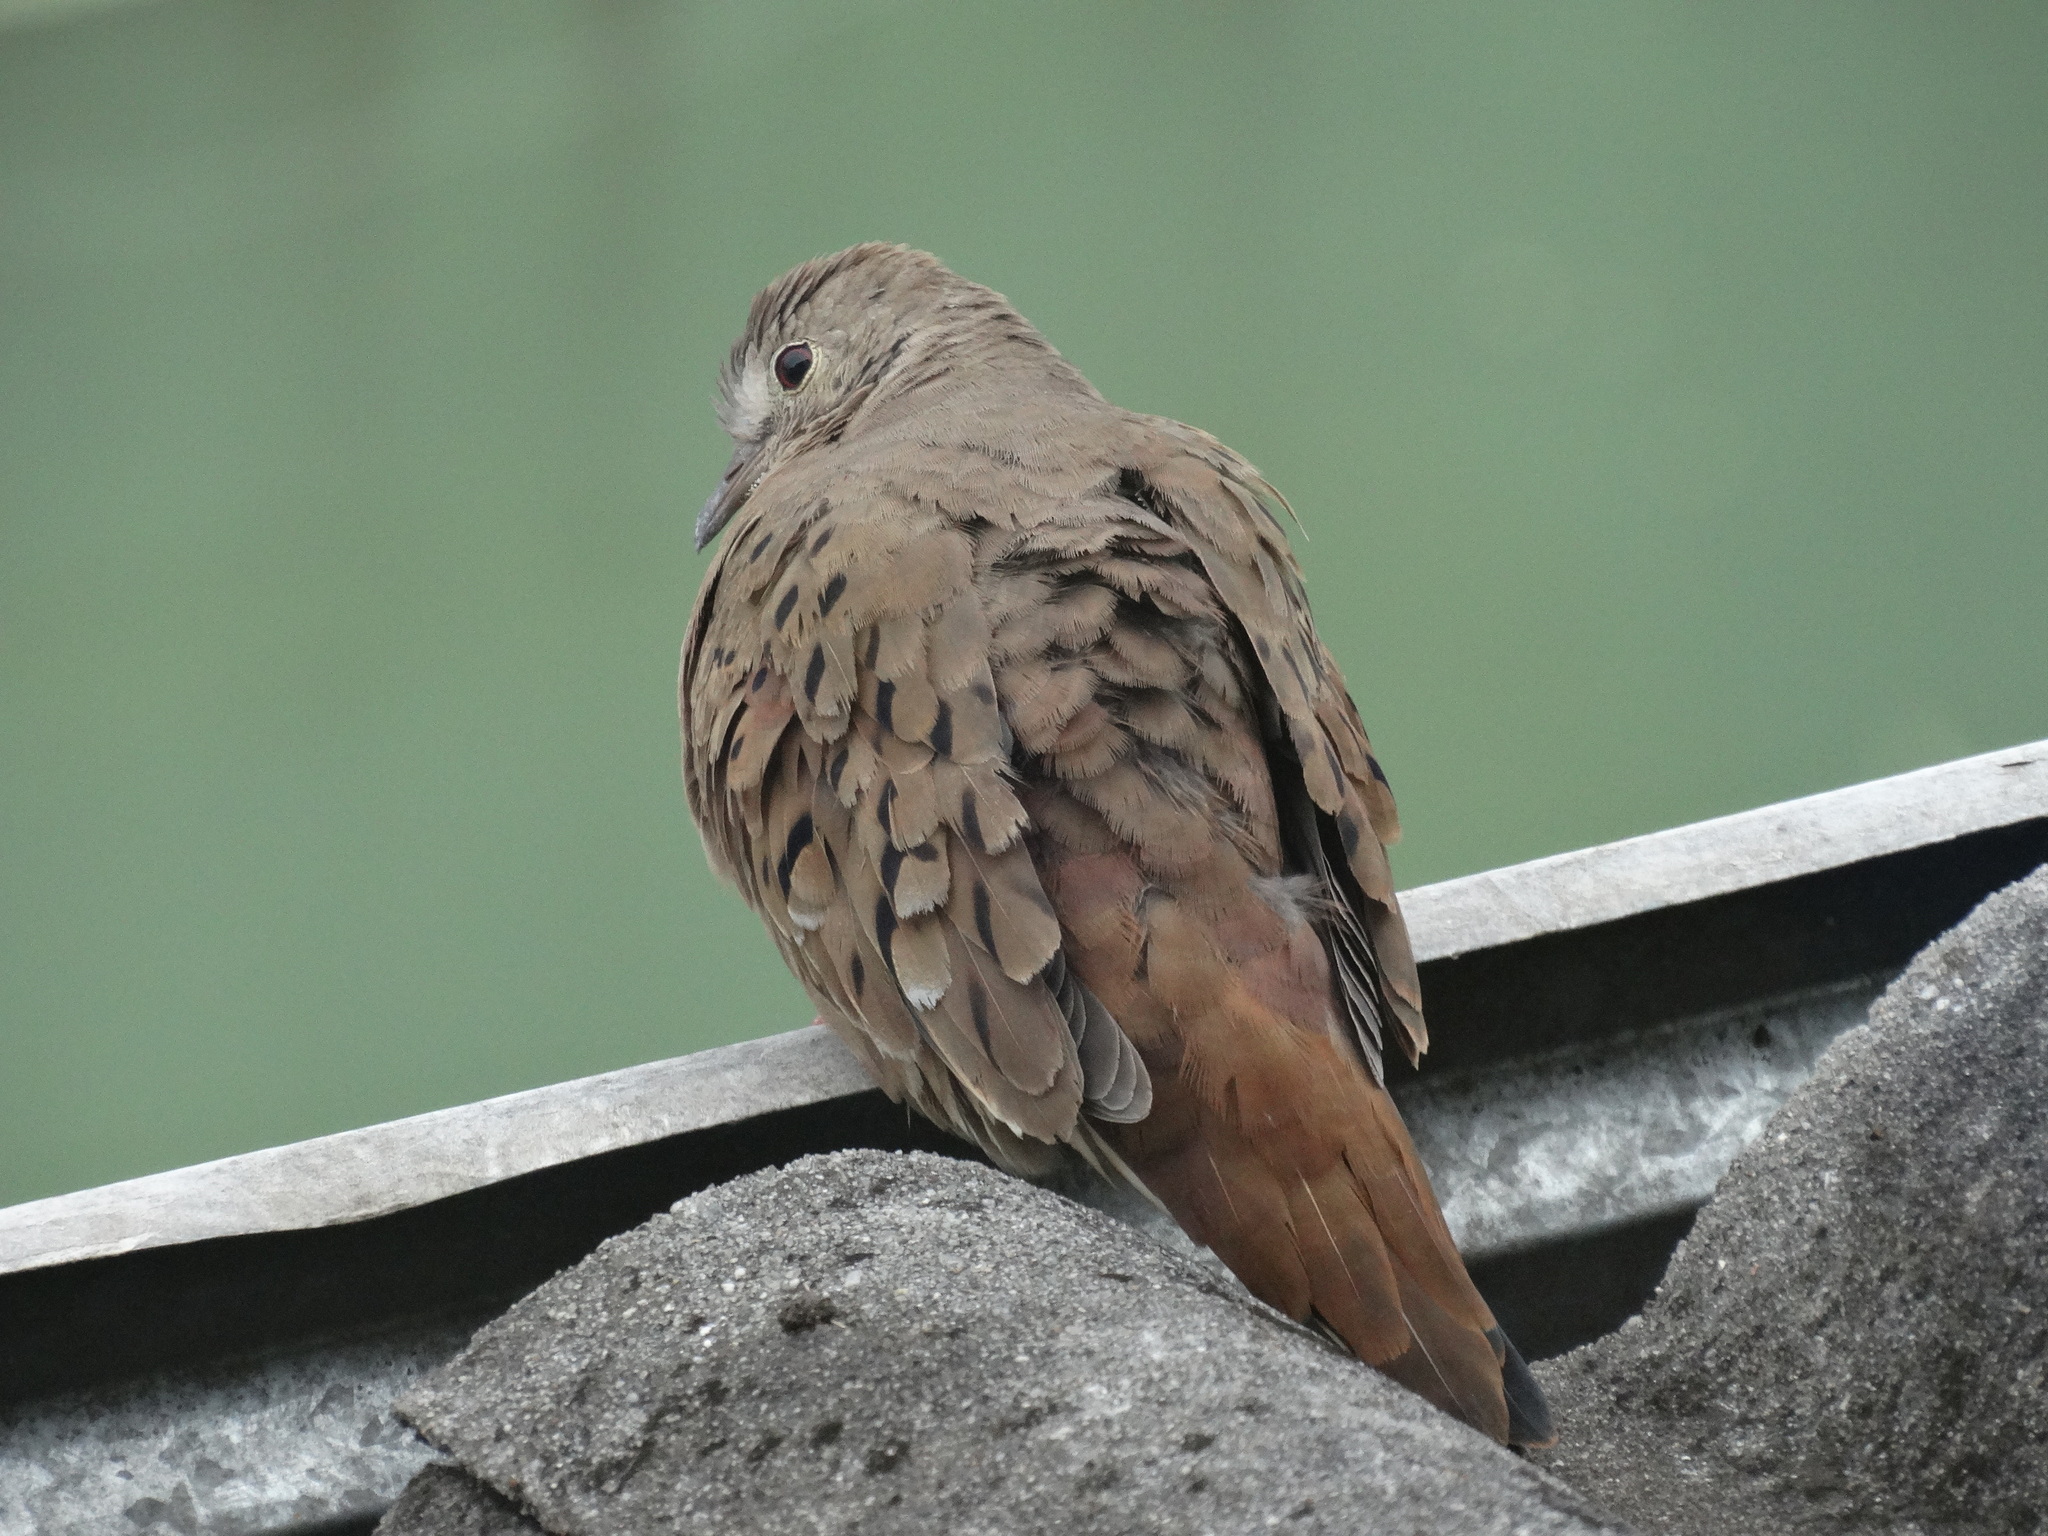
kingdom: Animalia
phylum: Chordata
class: Aves
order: Columbiformes
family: Columbidae
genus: Columbina
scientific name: Columbina talpacoti
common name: Ruddy ground dove
